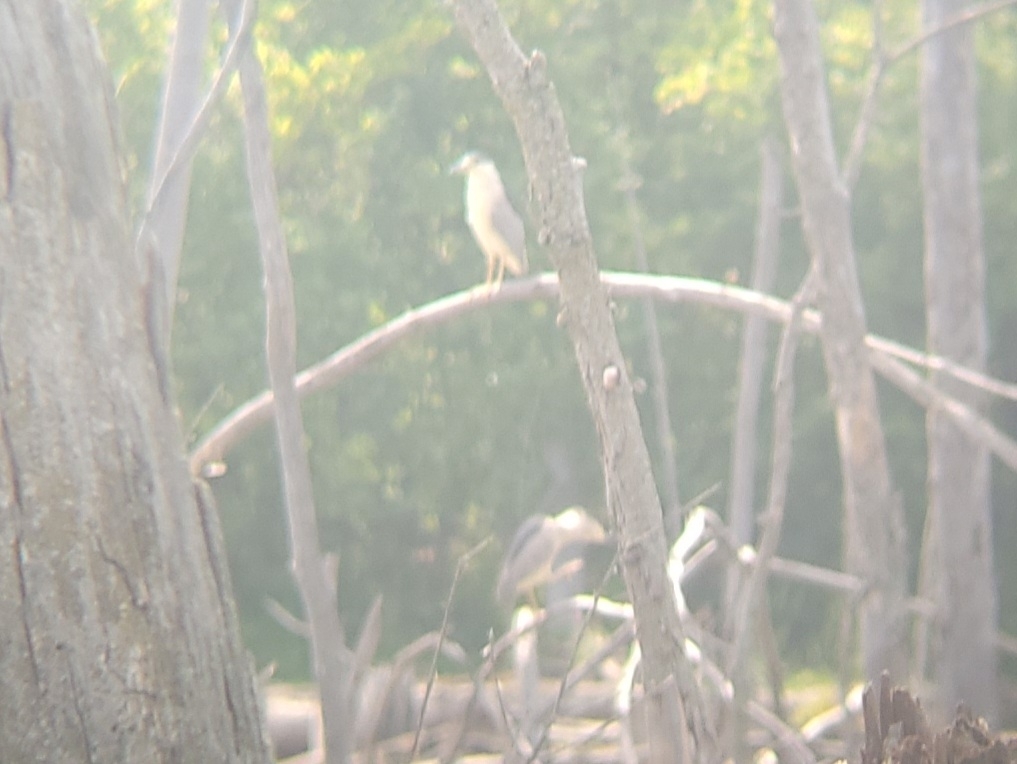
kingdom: Animalia
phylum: Chordata
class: Aves
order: Pelecaniformes
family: Ardeidae
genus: Nycticorax
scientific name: Nycticorax nycticorax
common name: Black-crowned night heron
